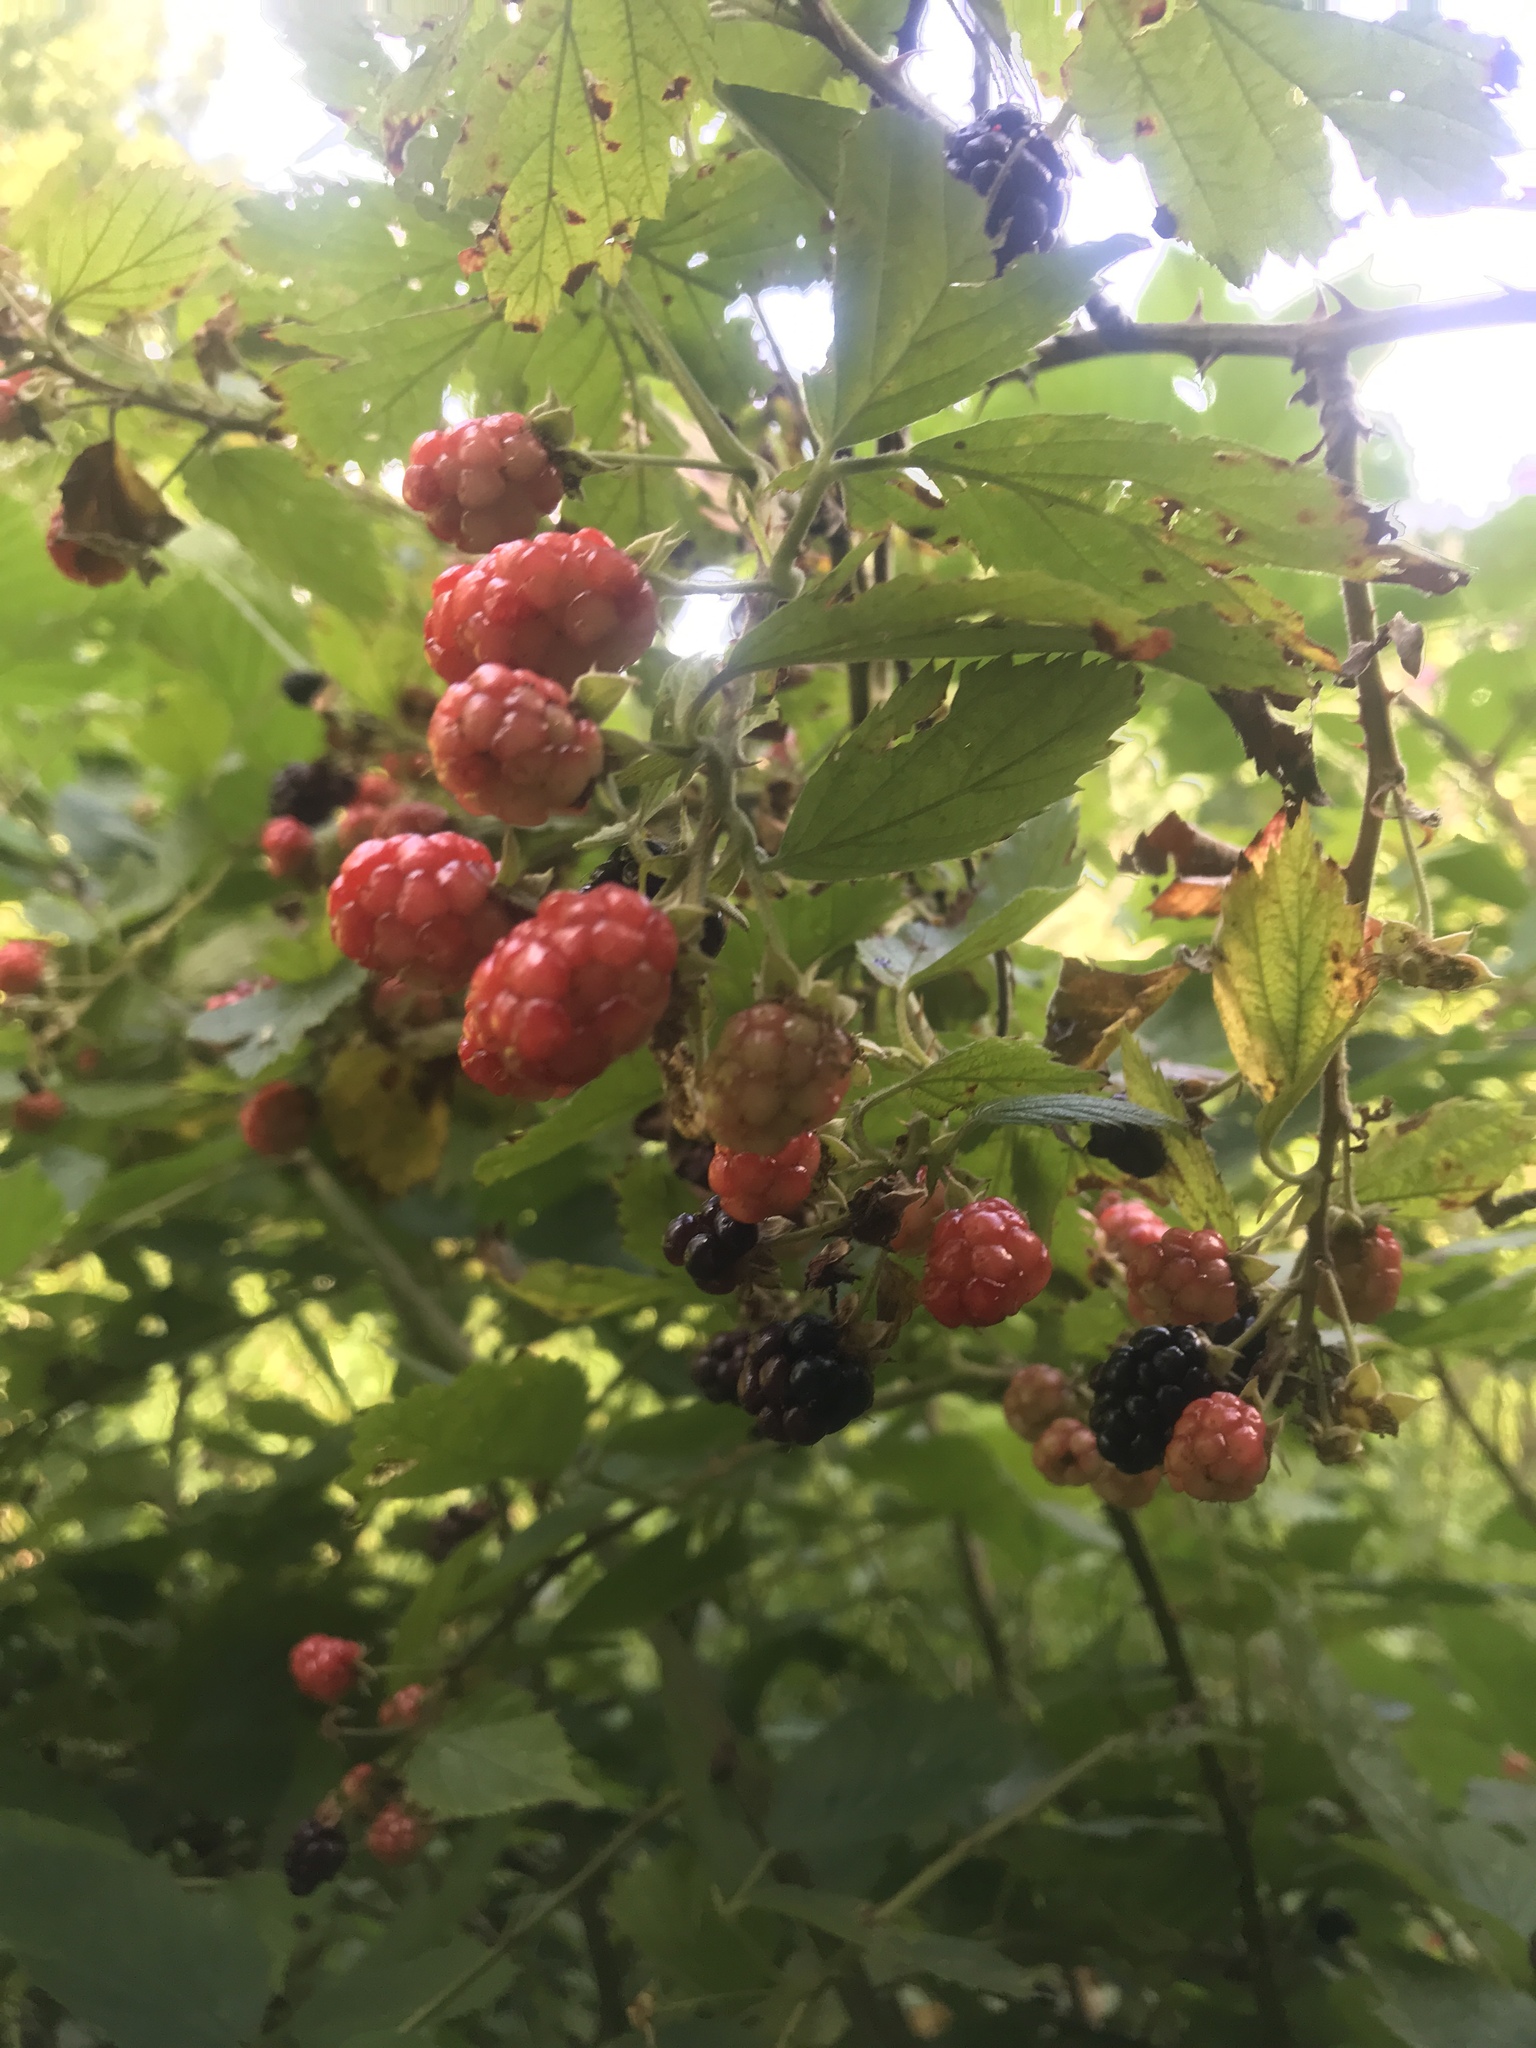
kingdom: Plantae
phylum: Tracheophyta
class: Magnoliopsida
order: Rosales
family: Rosaceae
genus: Rubus
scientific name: Rubus allegheniensis
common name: Allegheny blackberry
